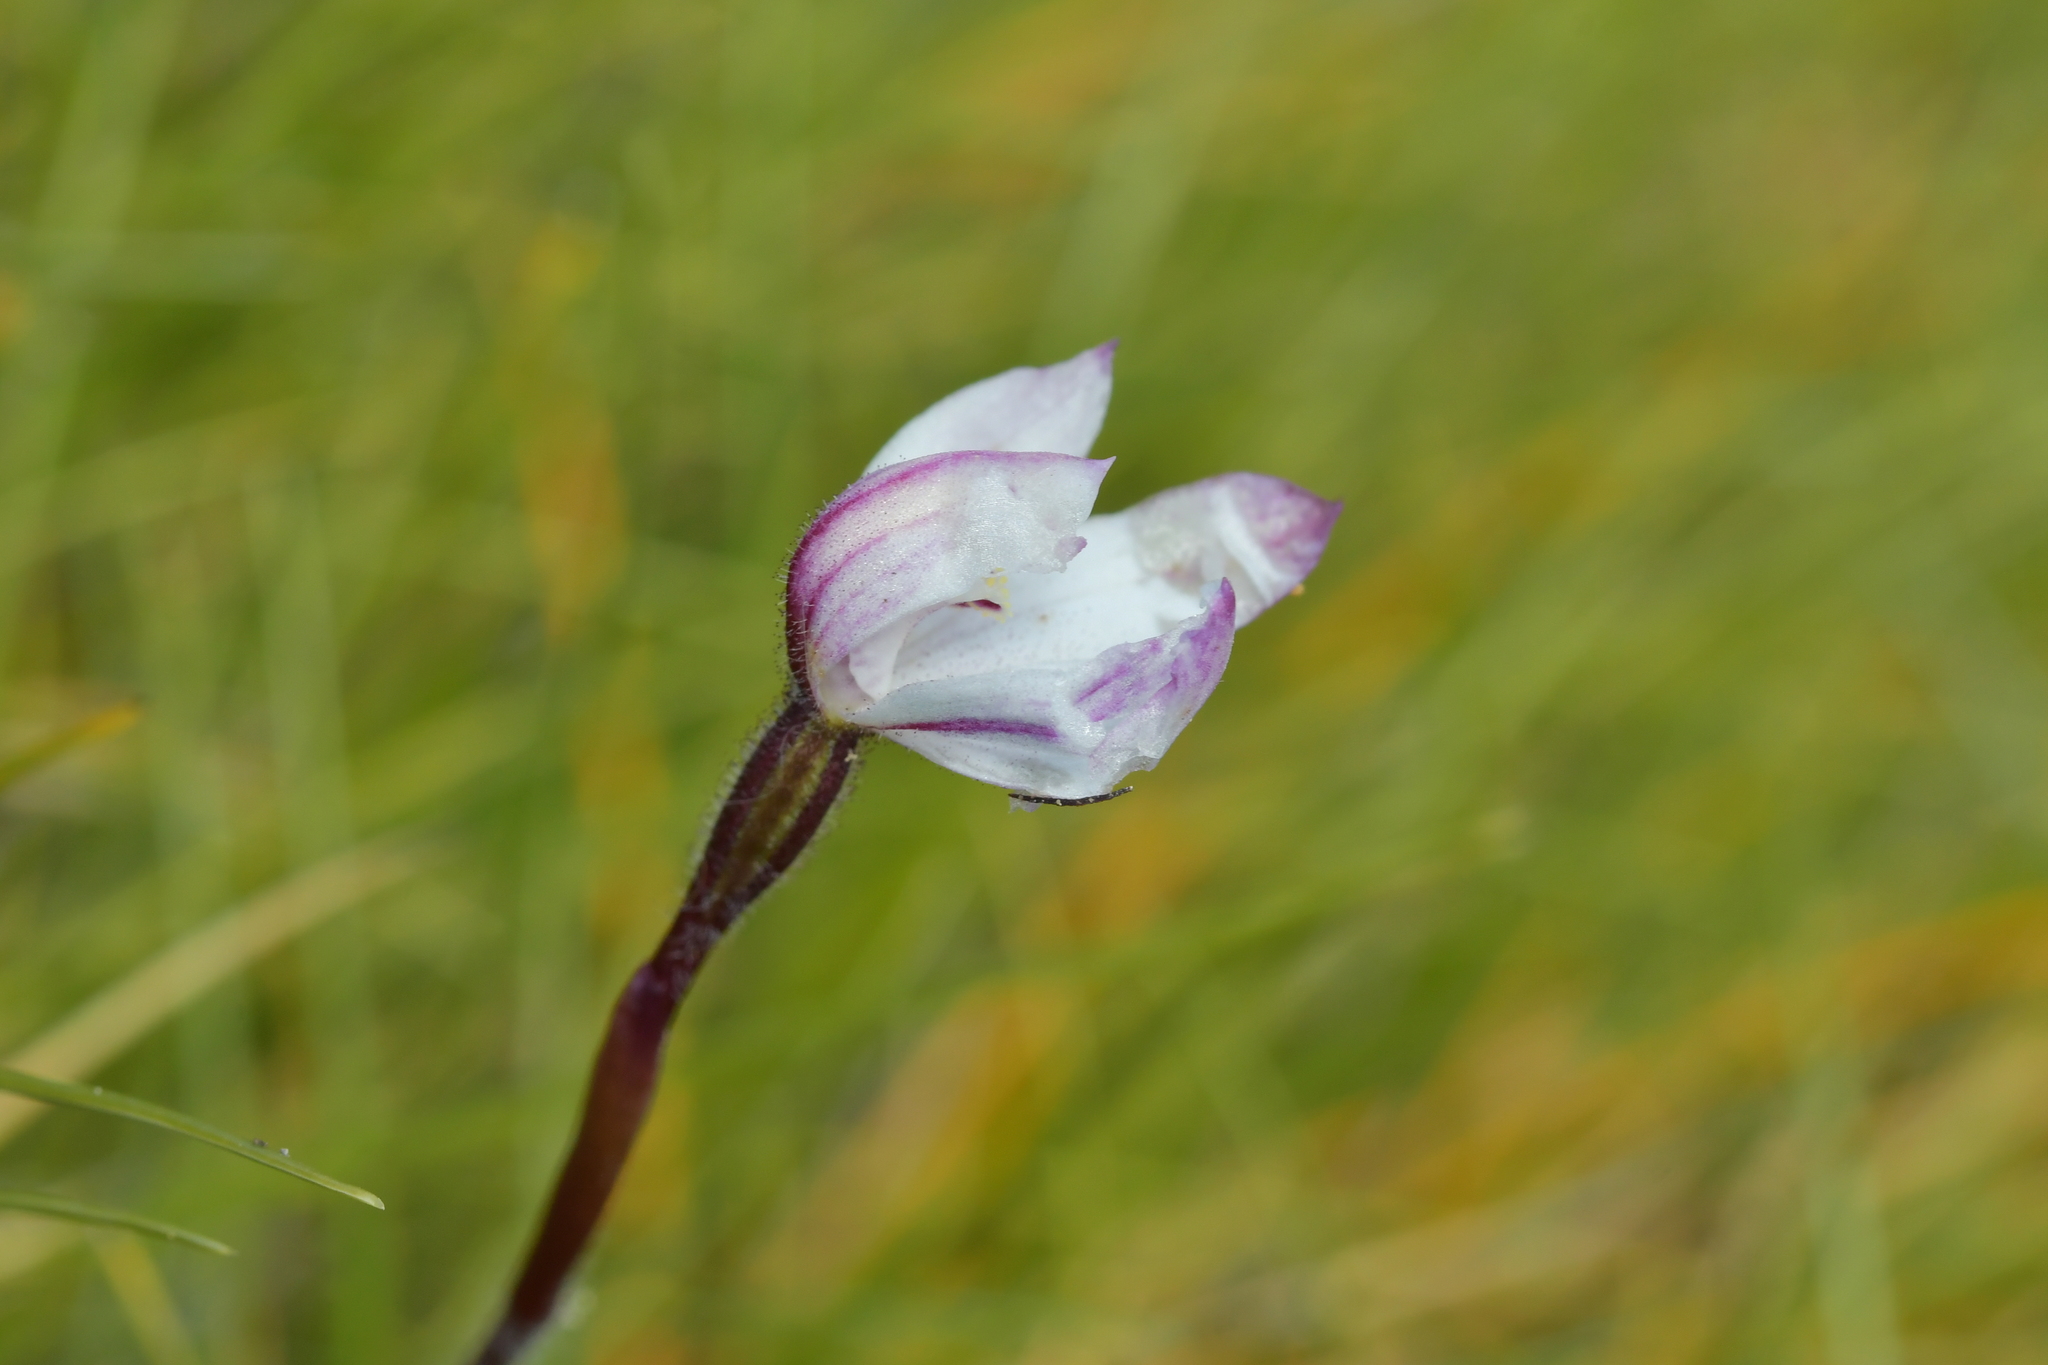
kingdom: Plantae
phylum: Tracheophyta
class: Liliopsida
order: Asparagales
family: Orchidaceae
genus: Caladenia
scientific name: Caladenia lyallii
